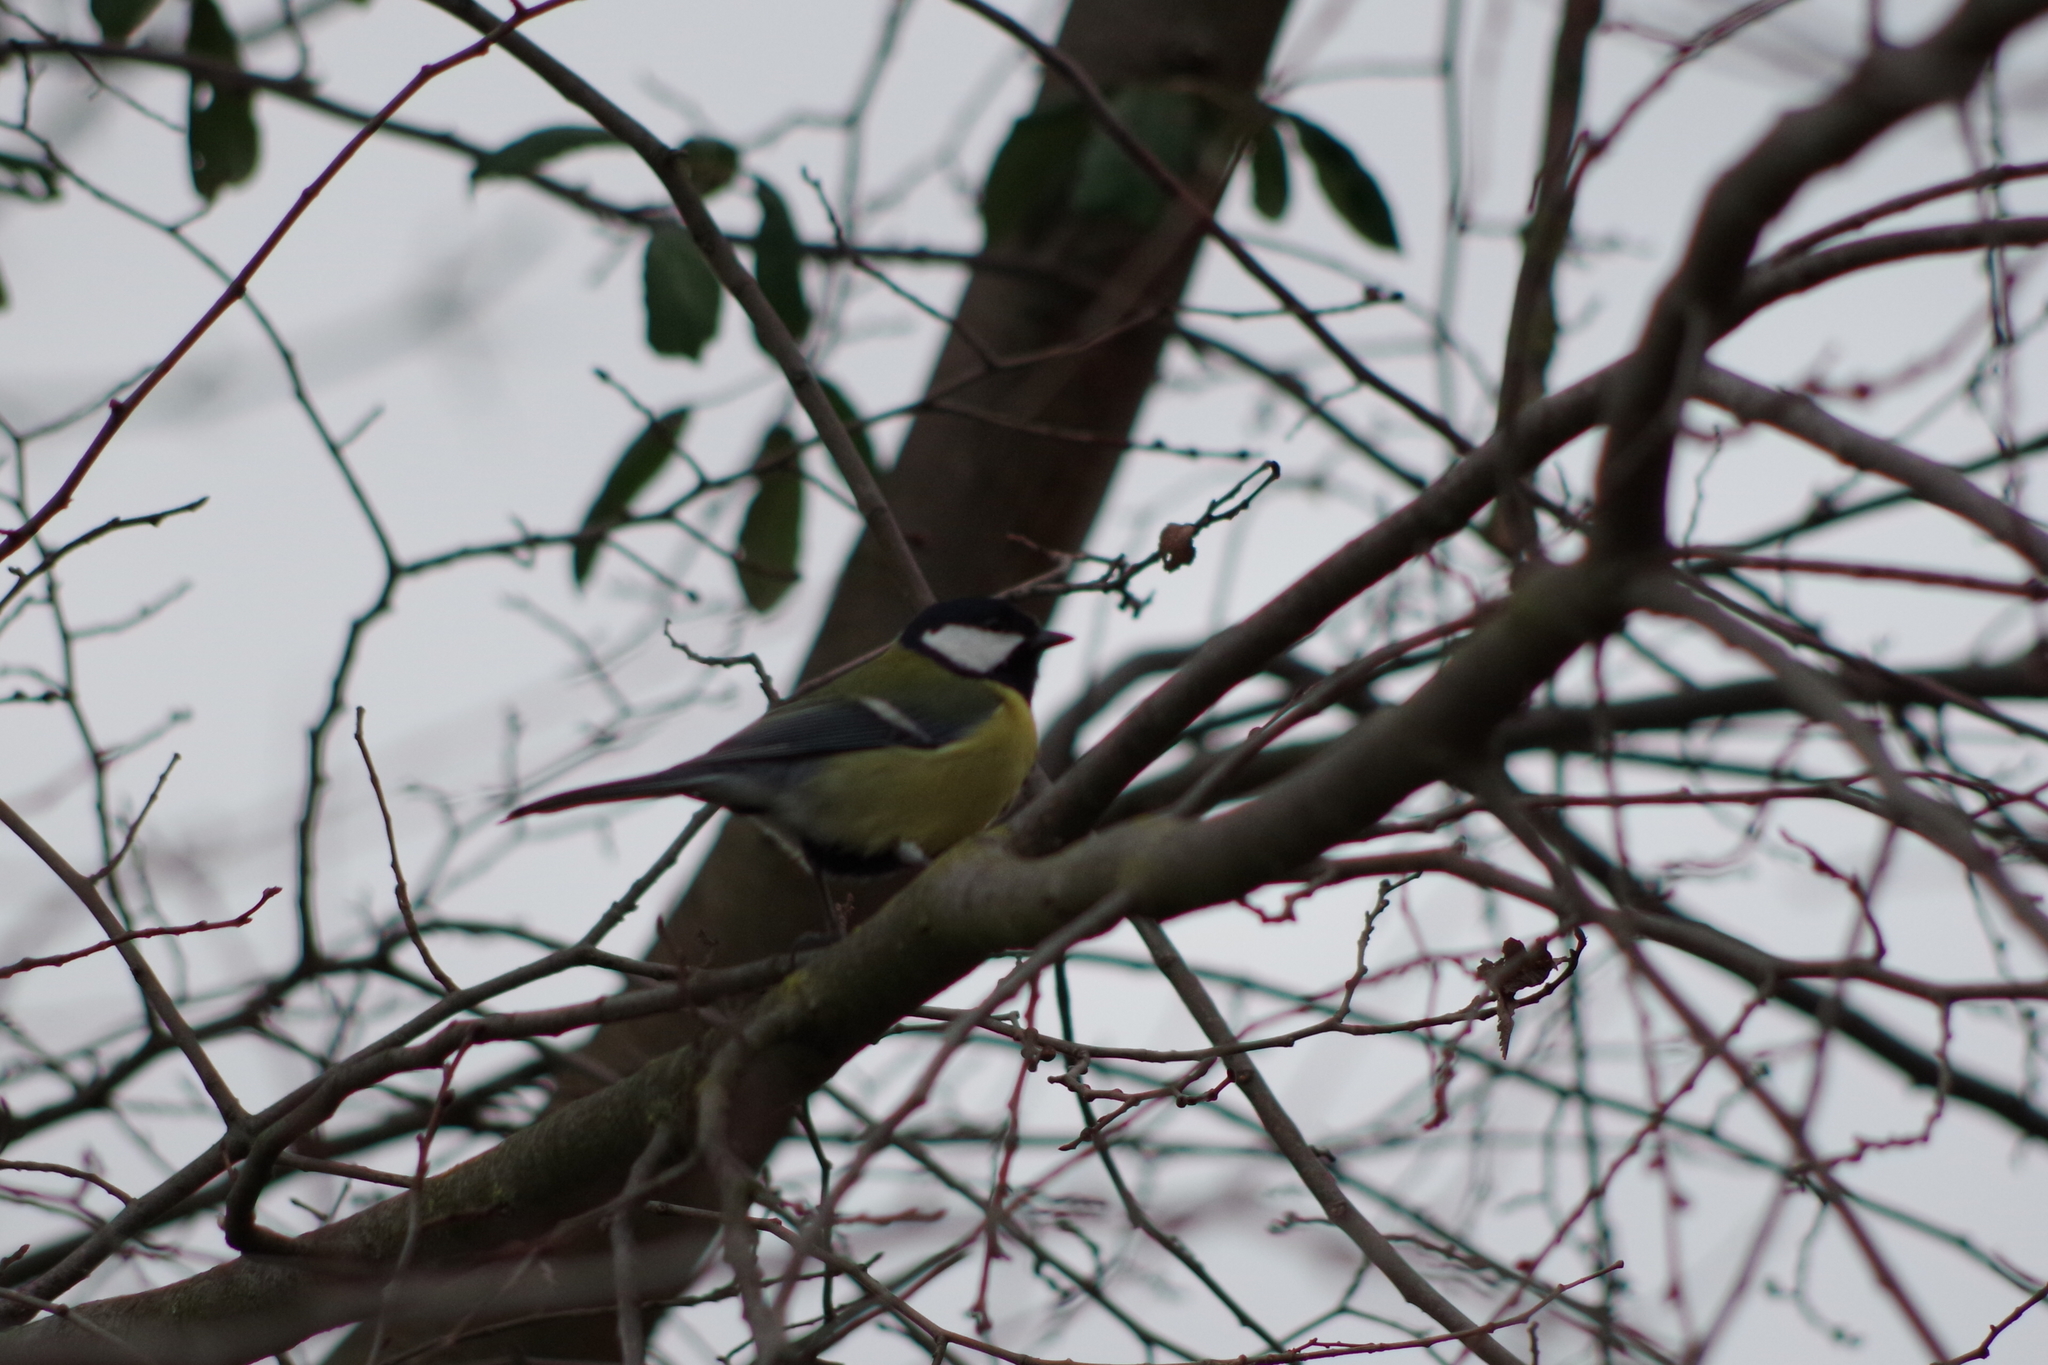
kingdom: Animalia
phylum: Chordata
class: Aves
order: Passeriformes
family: Paridae
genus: Parus
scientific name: Parus major
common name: Great tit
